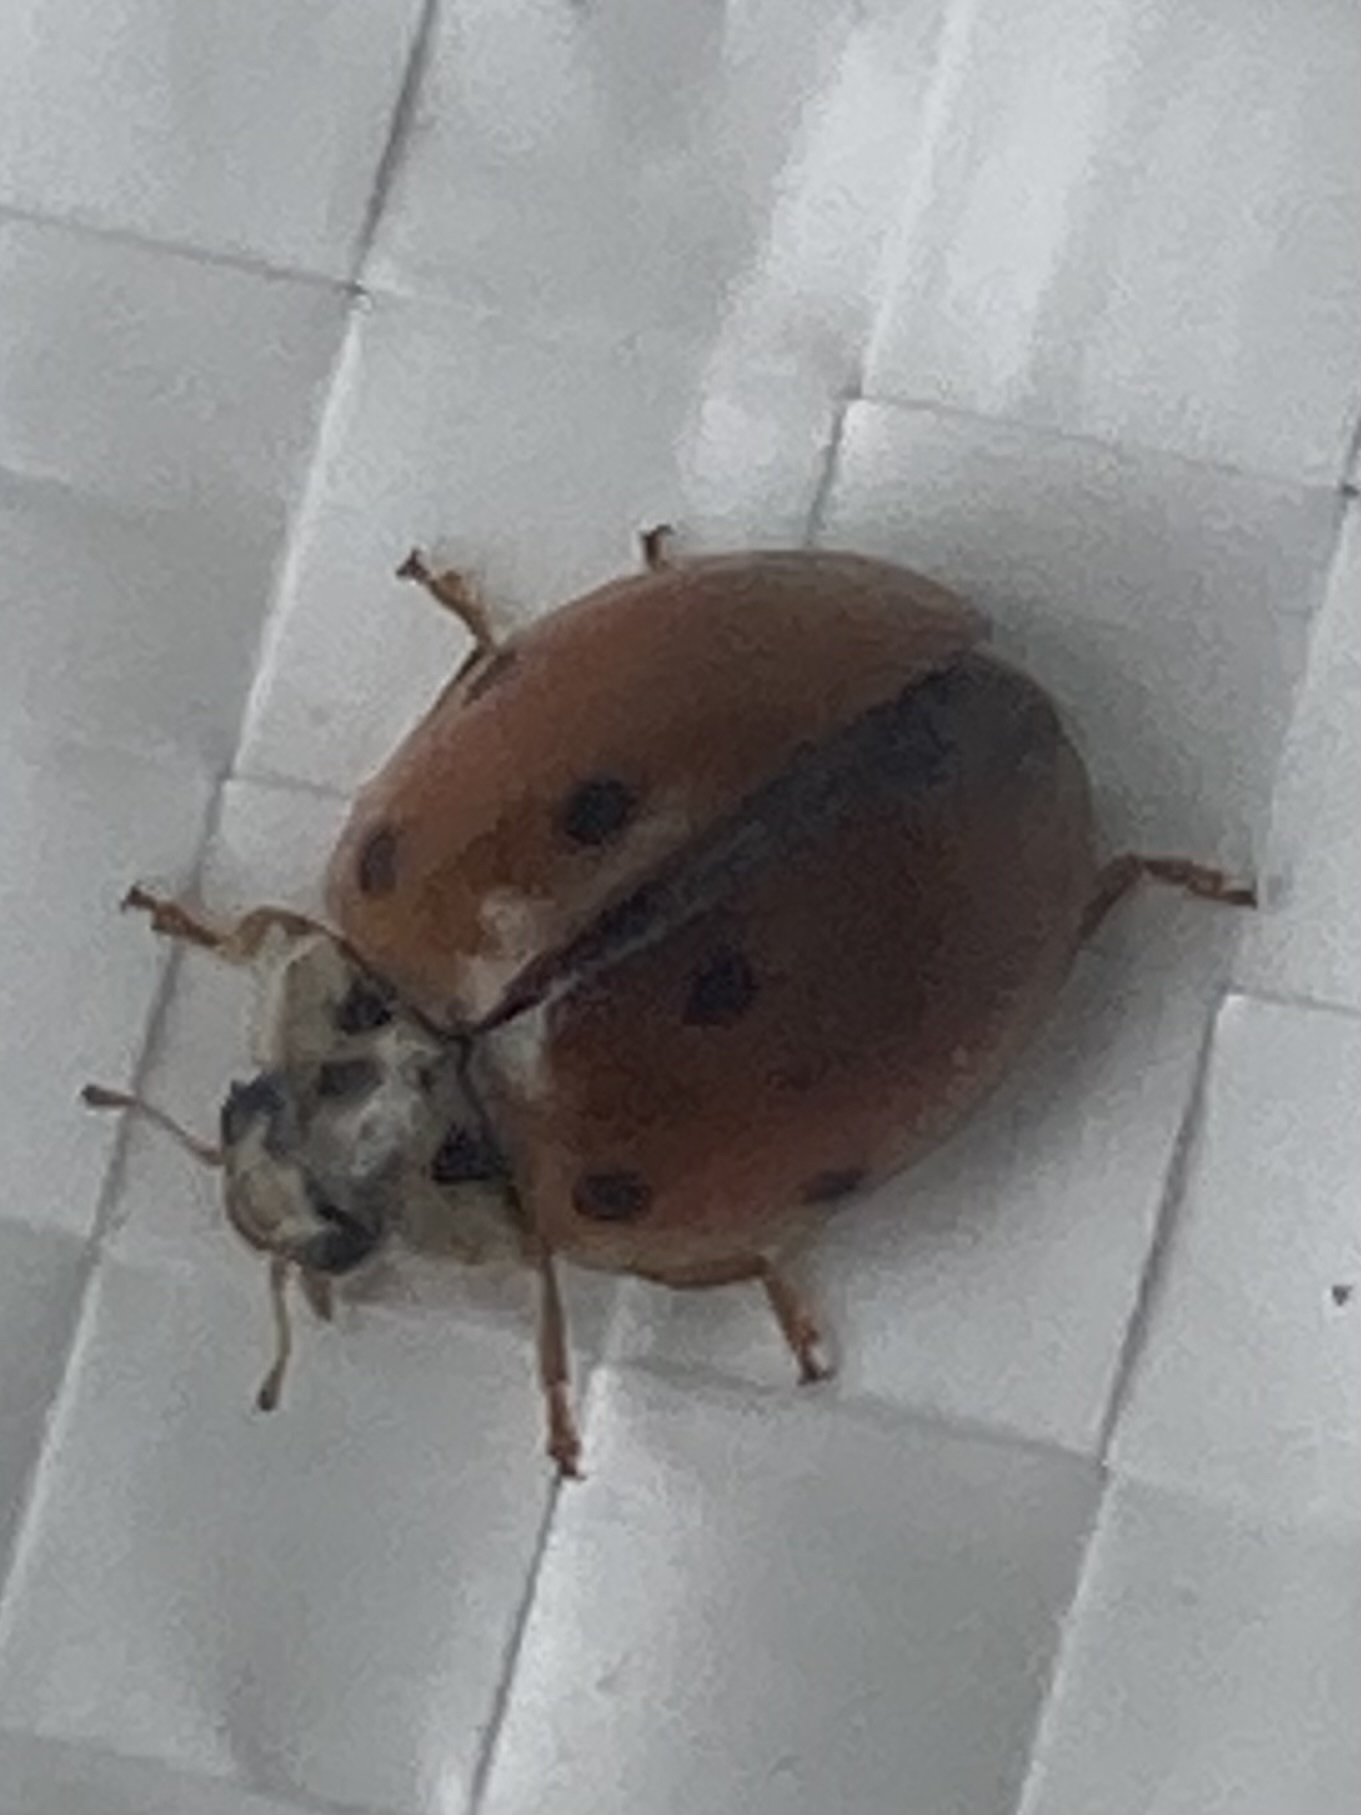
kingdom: Animalia
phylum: Arthropoda
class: Insecta
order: Coleoptera
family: Coccinellidae
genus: Adalia
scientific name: Adalia decempunctata
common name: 10-spot ladybird
